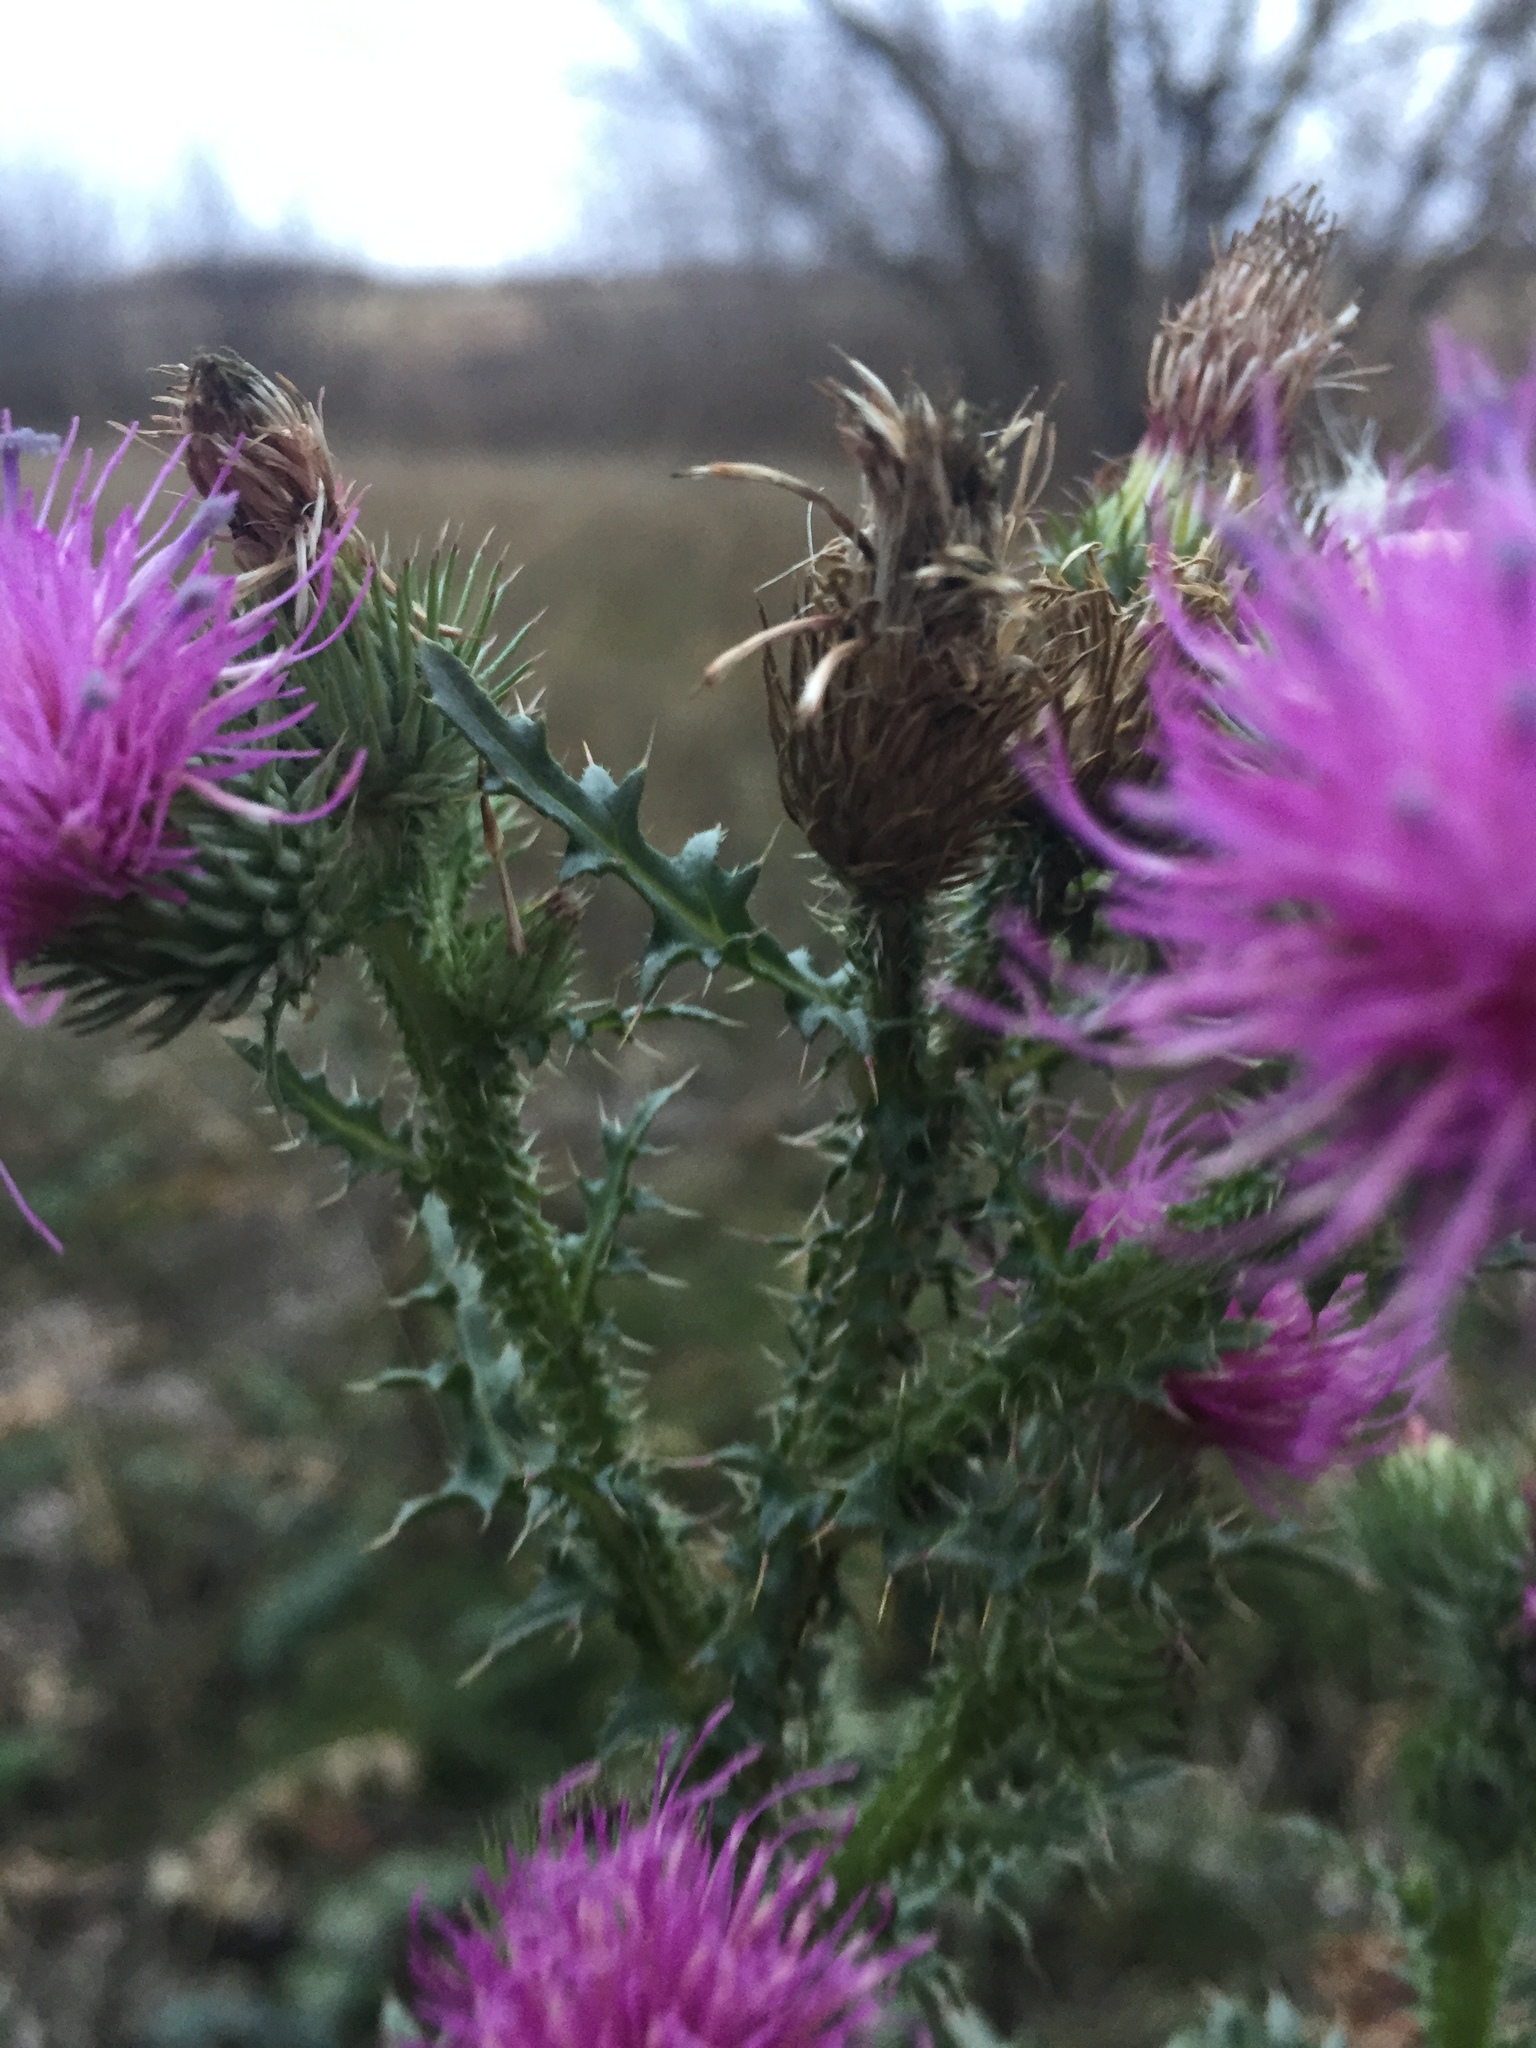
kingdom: Plantae
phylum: Tracheophyta
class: Magnoliopsida
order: Asterales
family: Asteraceae
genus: Carduus
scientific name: Carduus acanthoides
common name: Plumeless thistle
